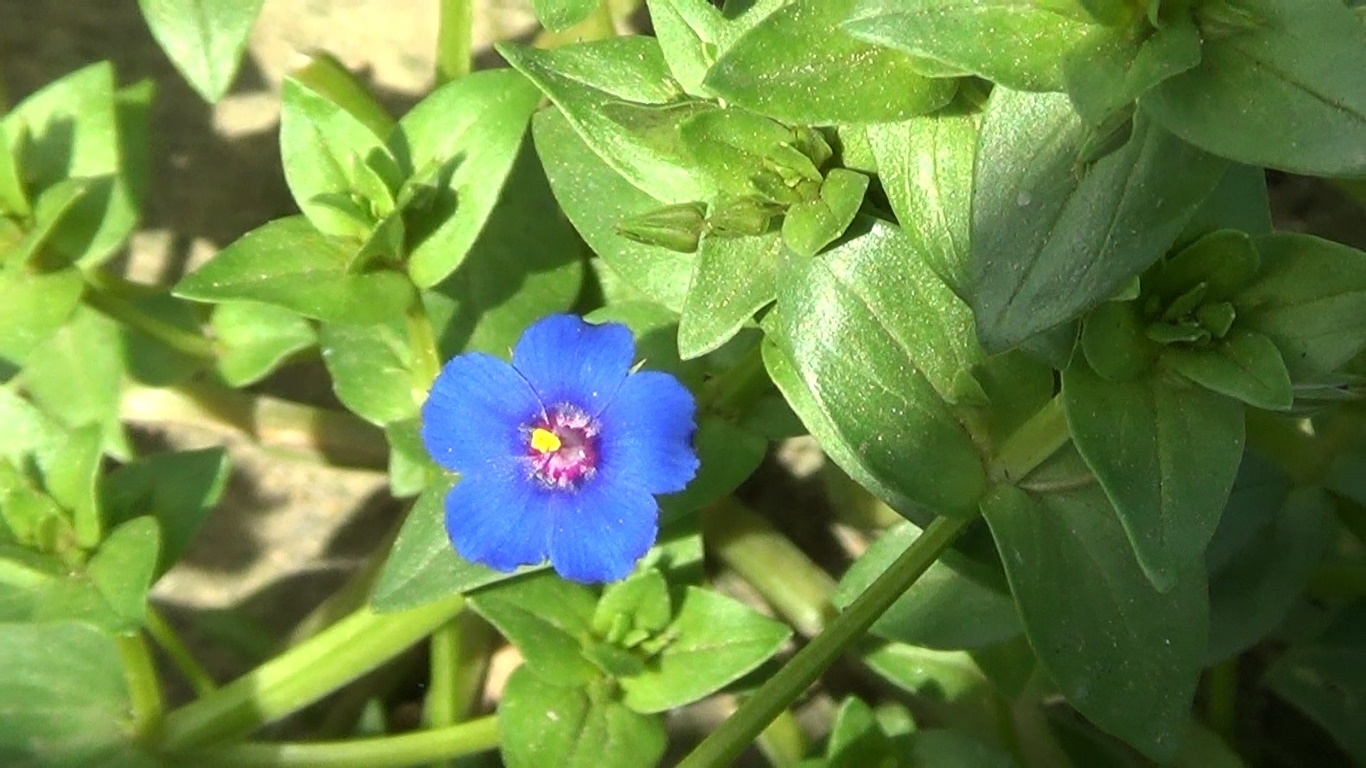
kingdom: Plantae
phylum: Tracheophyta
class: Magnoliopsida
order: Ericales
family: Primulaceae
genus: Lysimachia
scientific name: Lysimachia foemina
